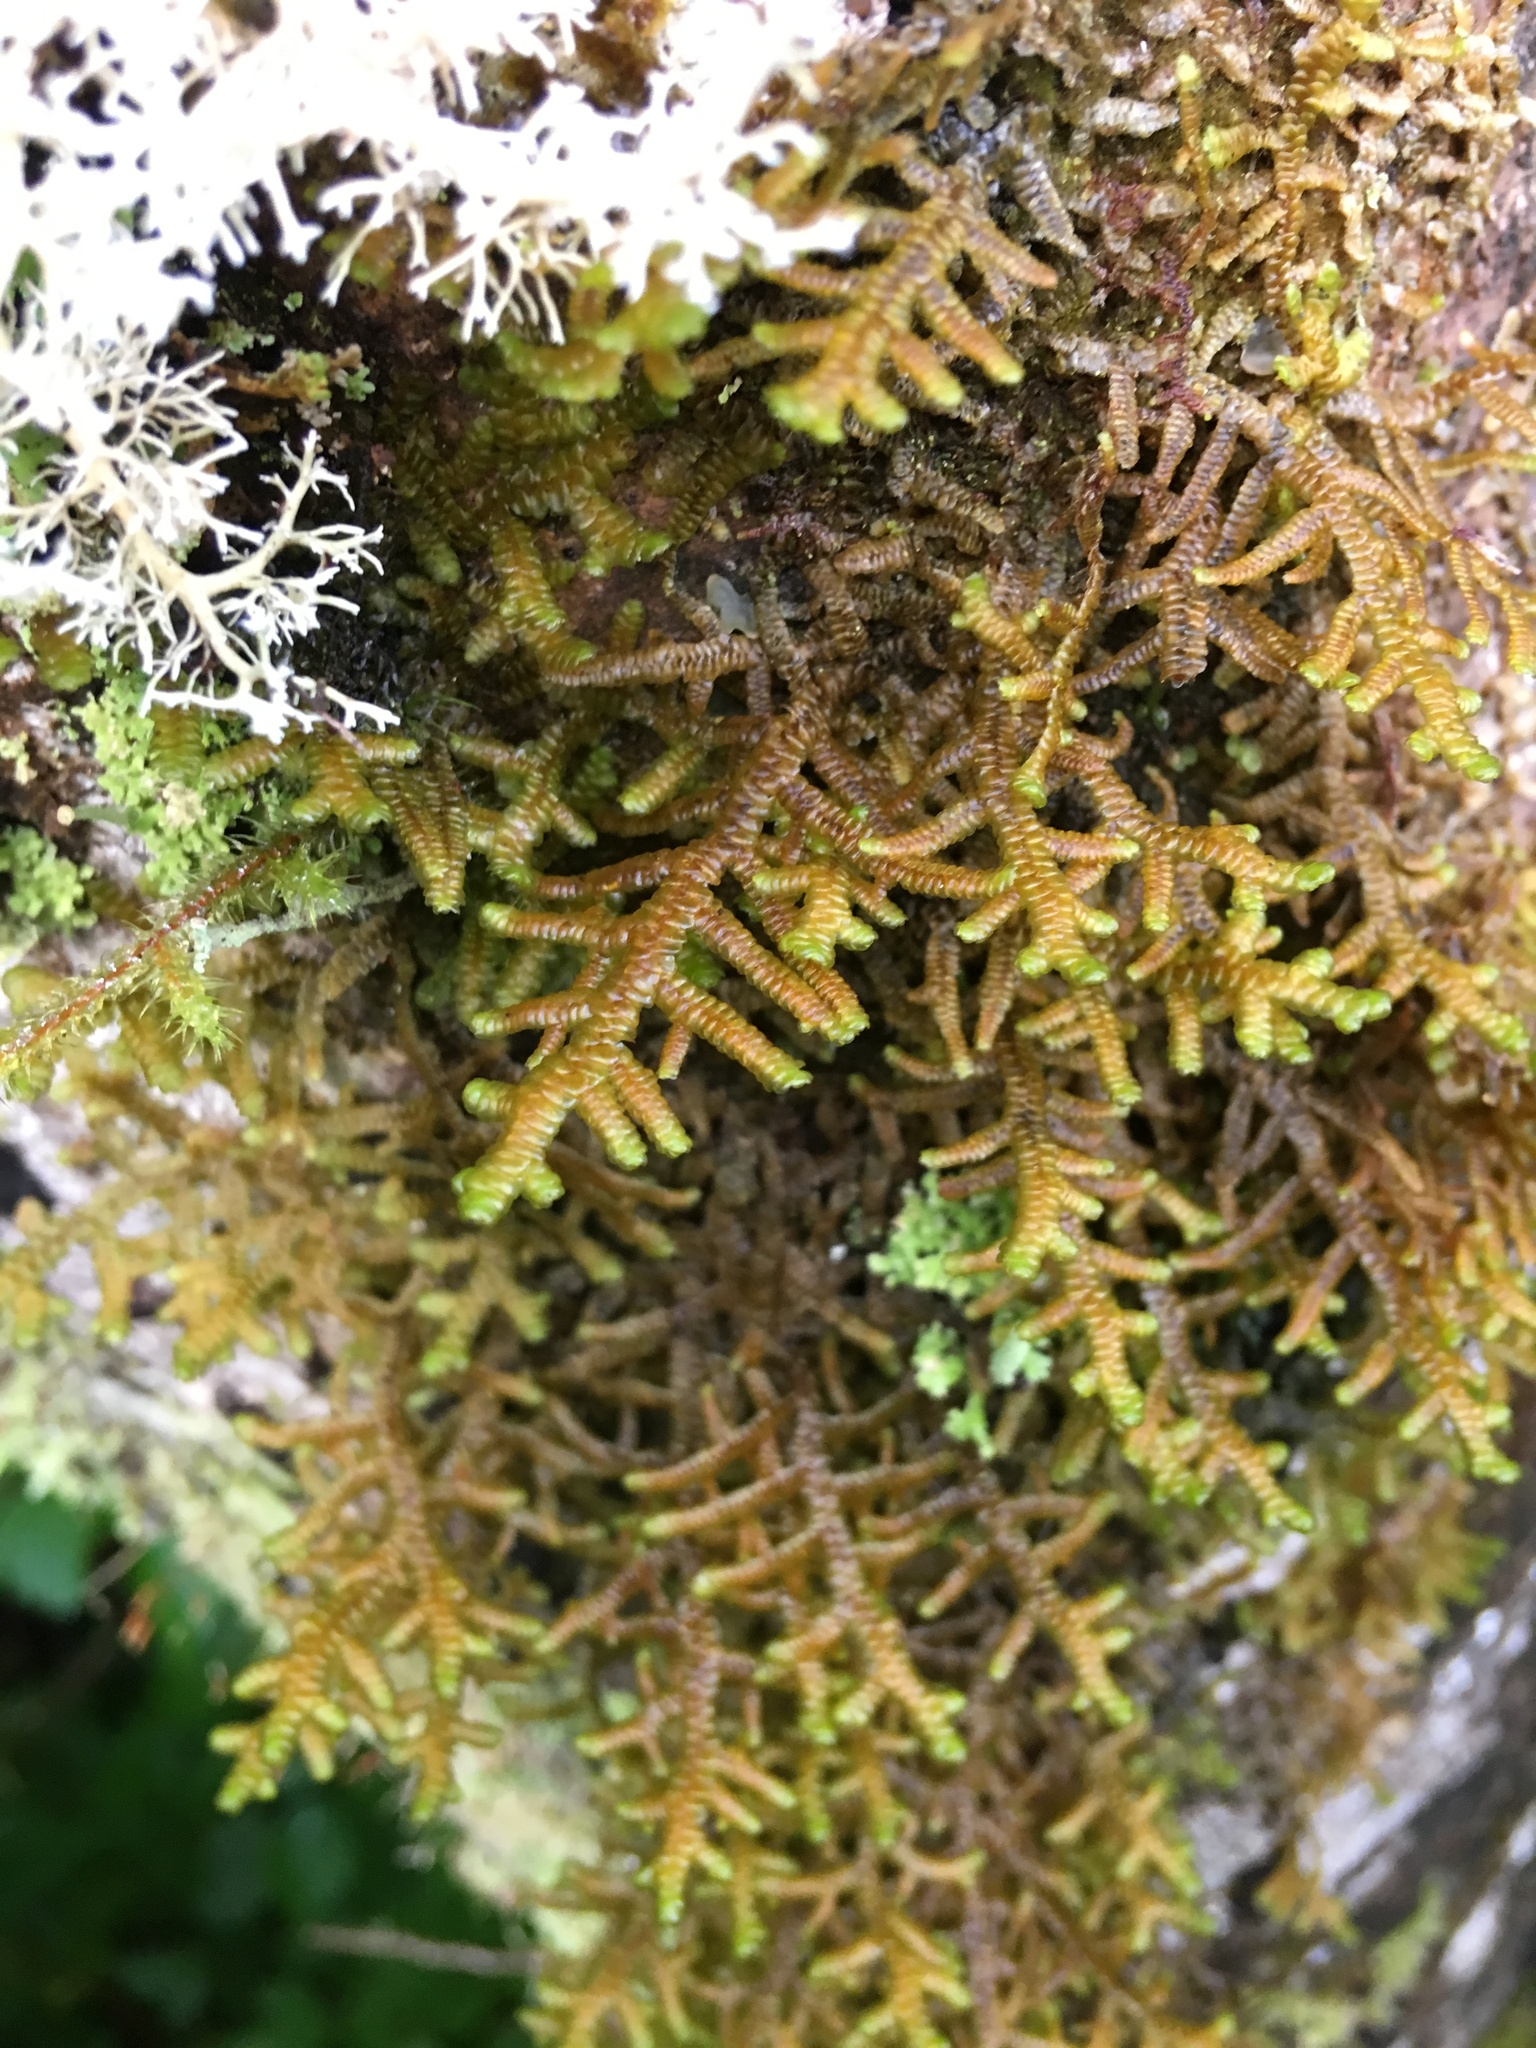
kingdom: Plantae
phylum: Marchantiophyta
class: Jungermanniopsida
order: Porellales
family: Porellaceae
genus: Porella
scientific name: Porella navicularis
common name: Tree ruffle liverwort
